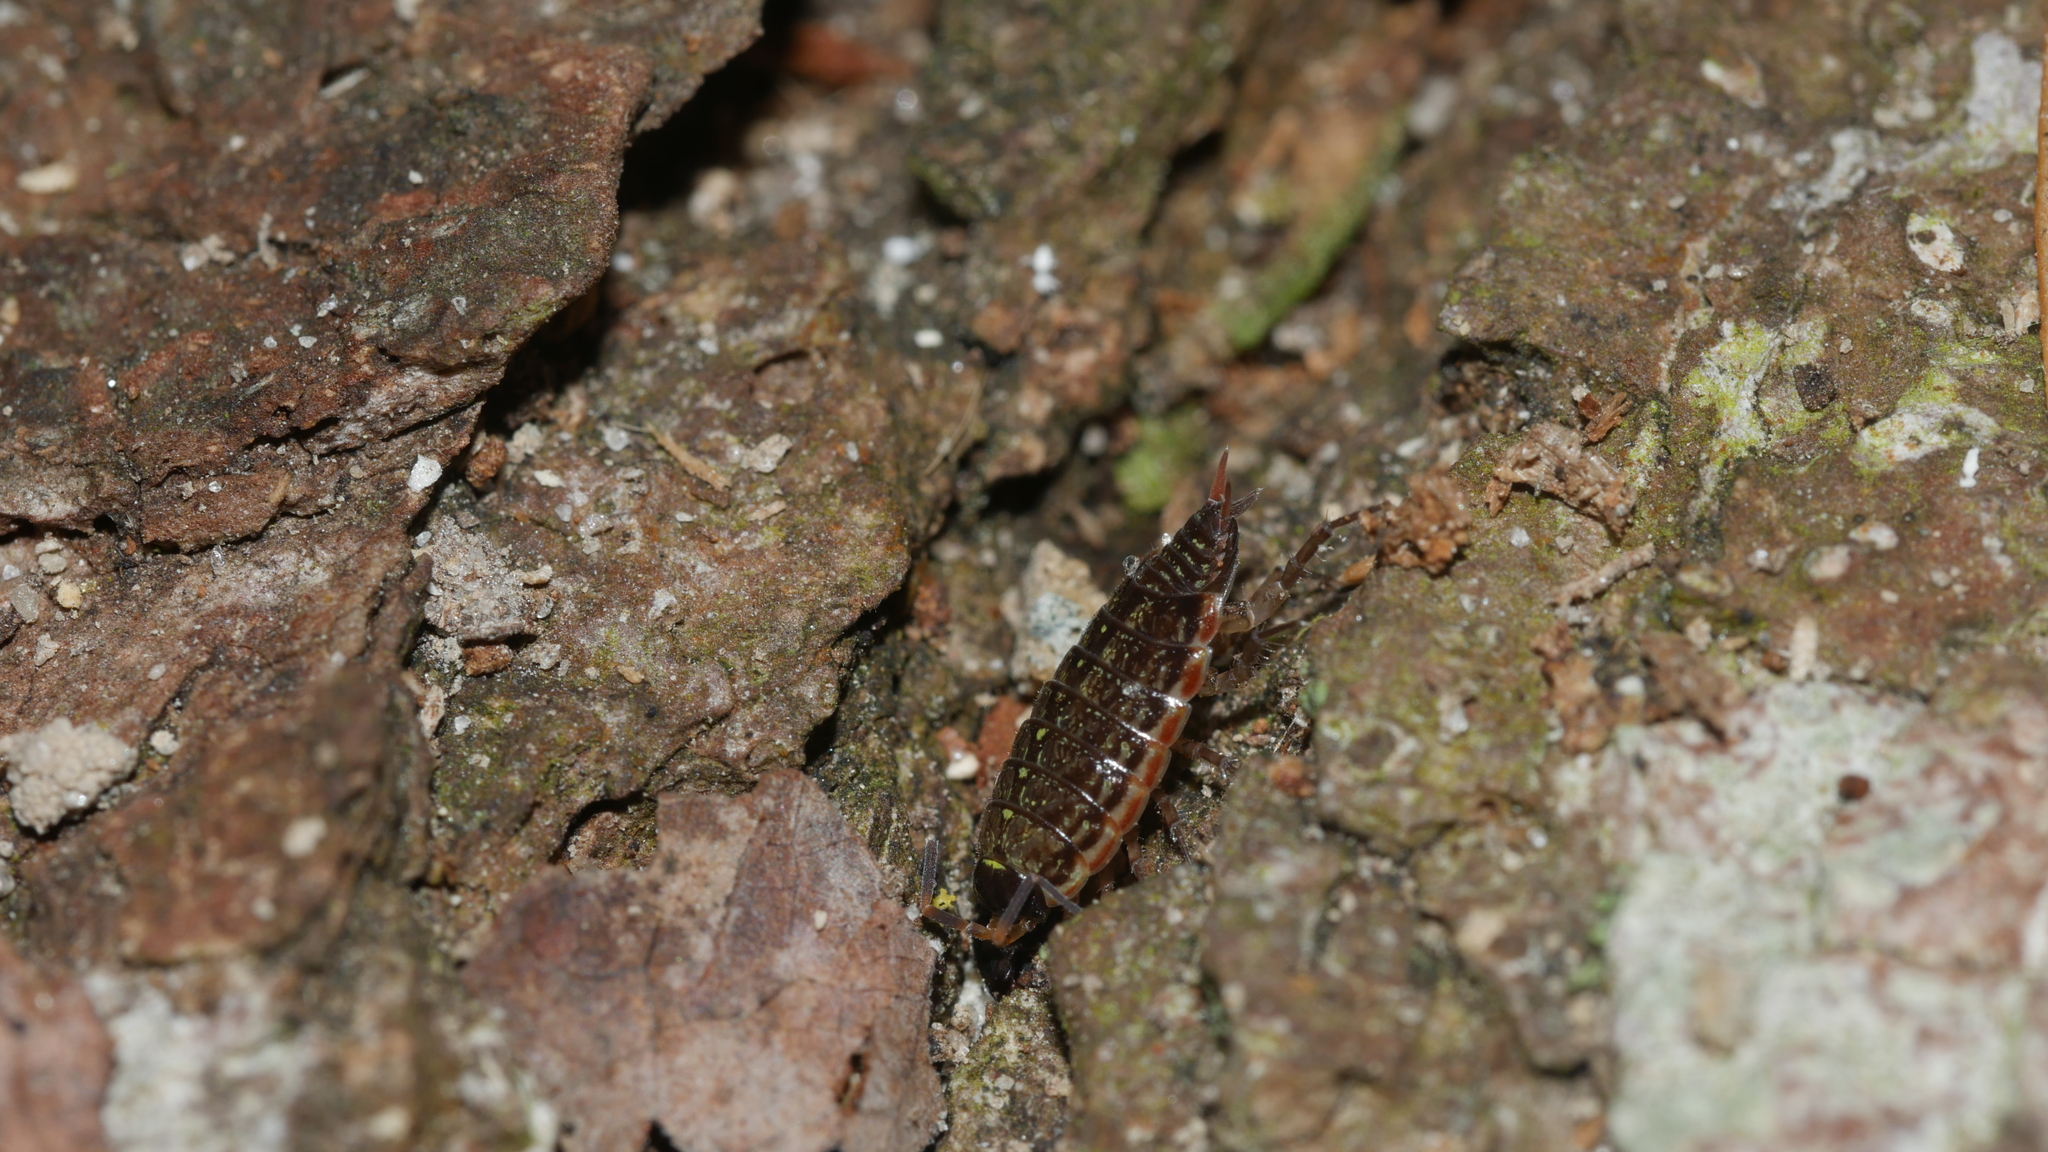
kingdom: Animalia
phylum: Arthropoda
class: Malacostraca
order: Isopoda
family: Philosciidae
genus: Philoscia
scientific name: Philoscia muscorum
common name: Common striped woodlouse
